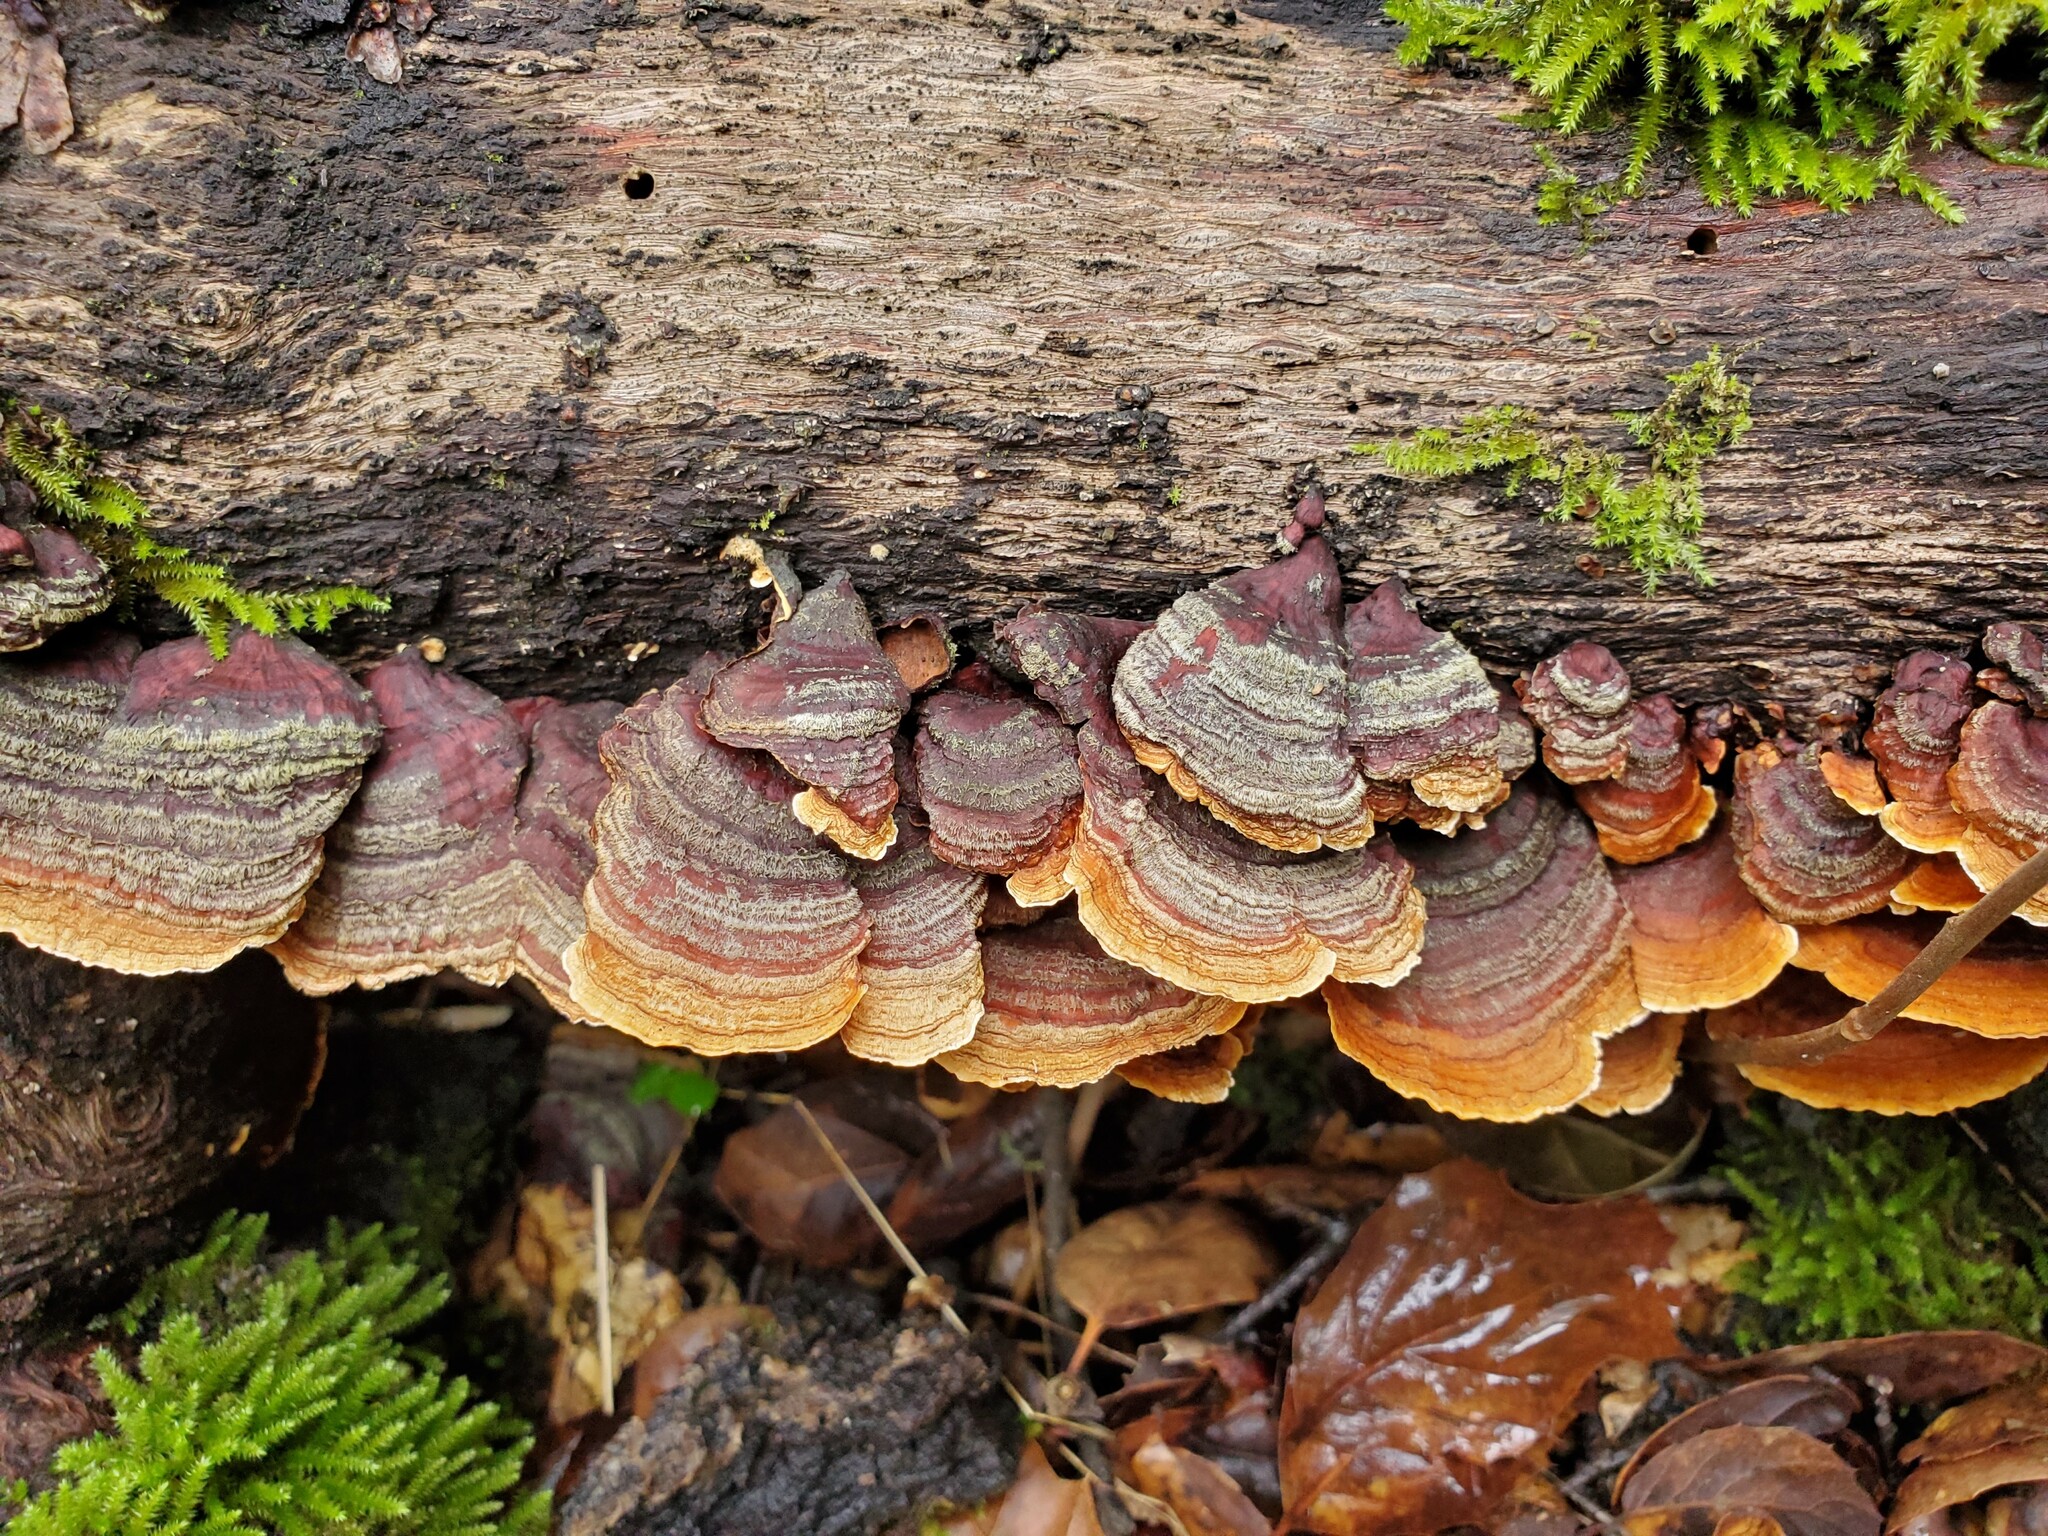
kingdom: Fungi
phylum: Basidiomycota
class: Agaricomycetes
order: Russulales
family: Stereaceae
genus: Stereum
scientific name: Stereum hirsutum
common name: Hairy curtain crust
